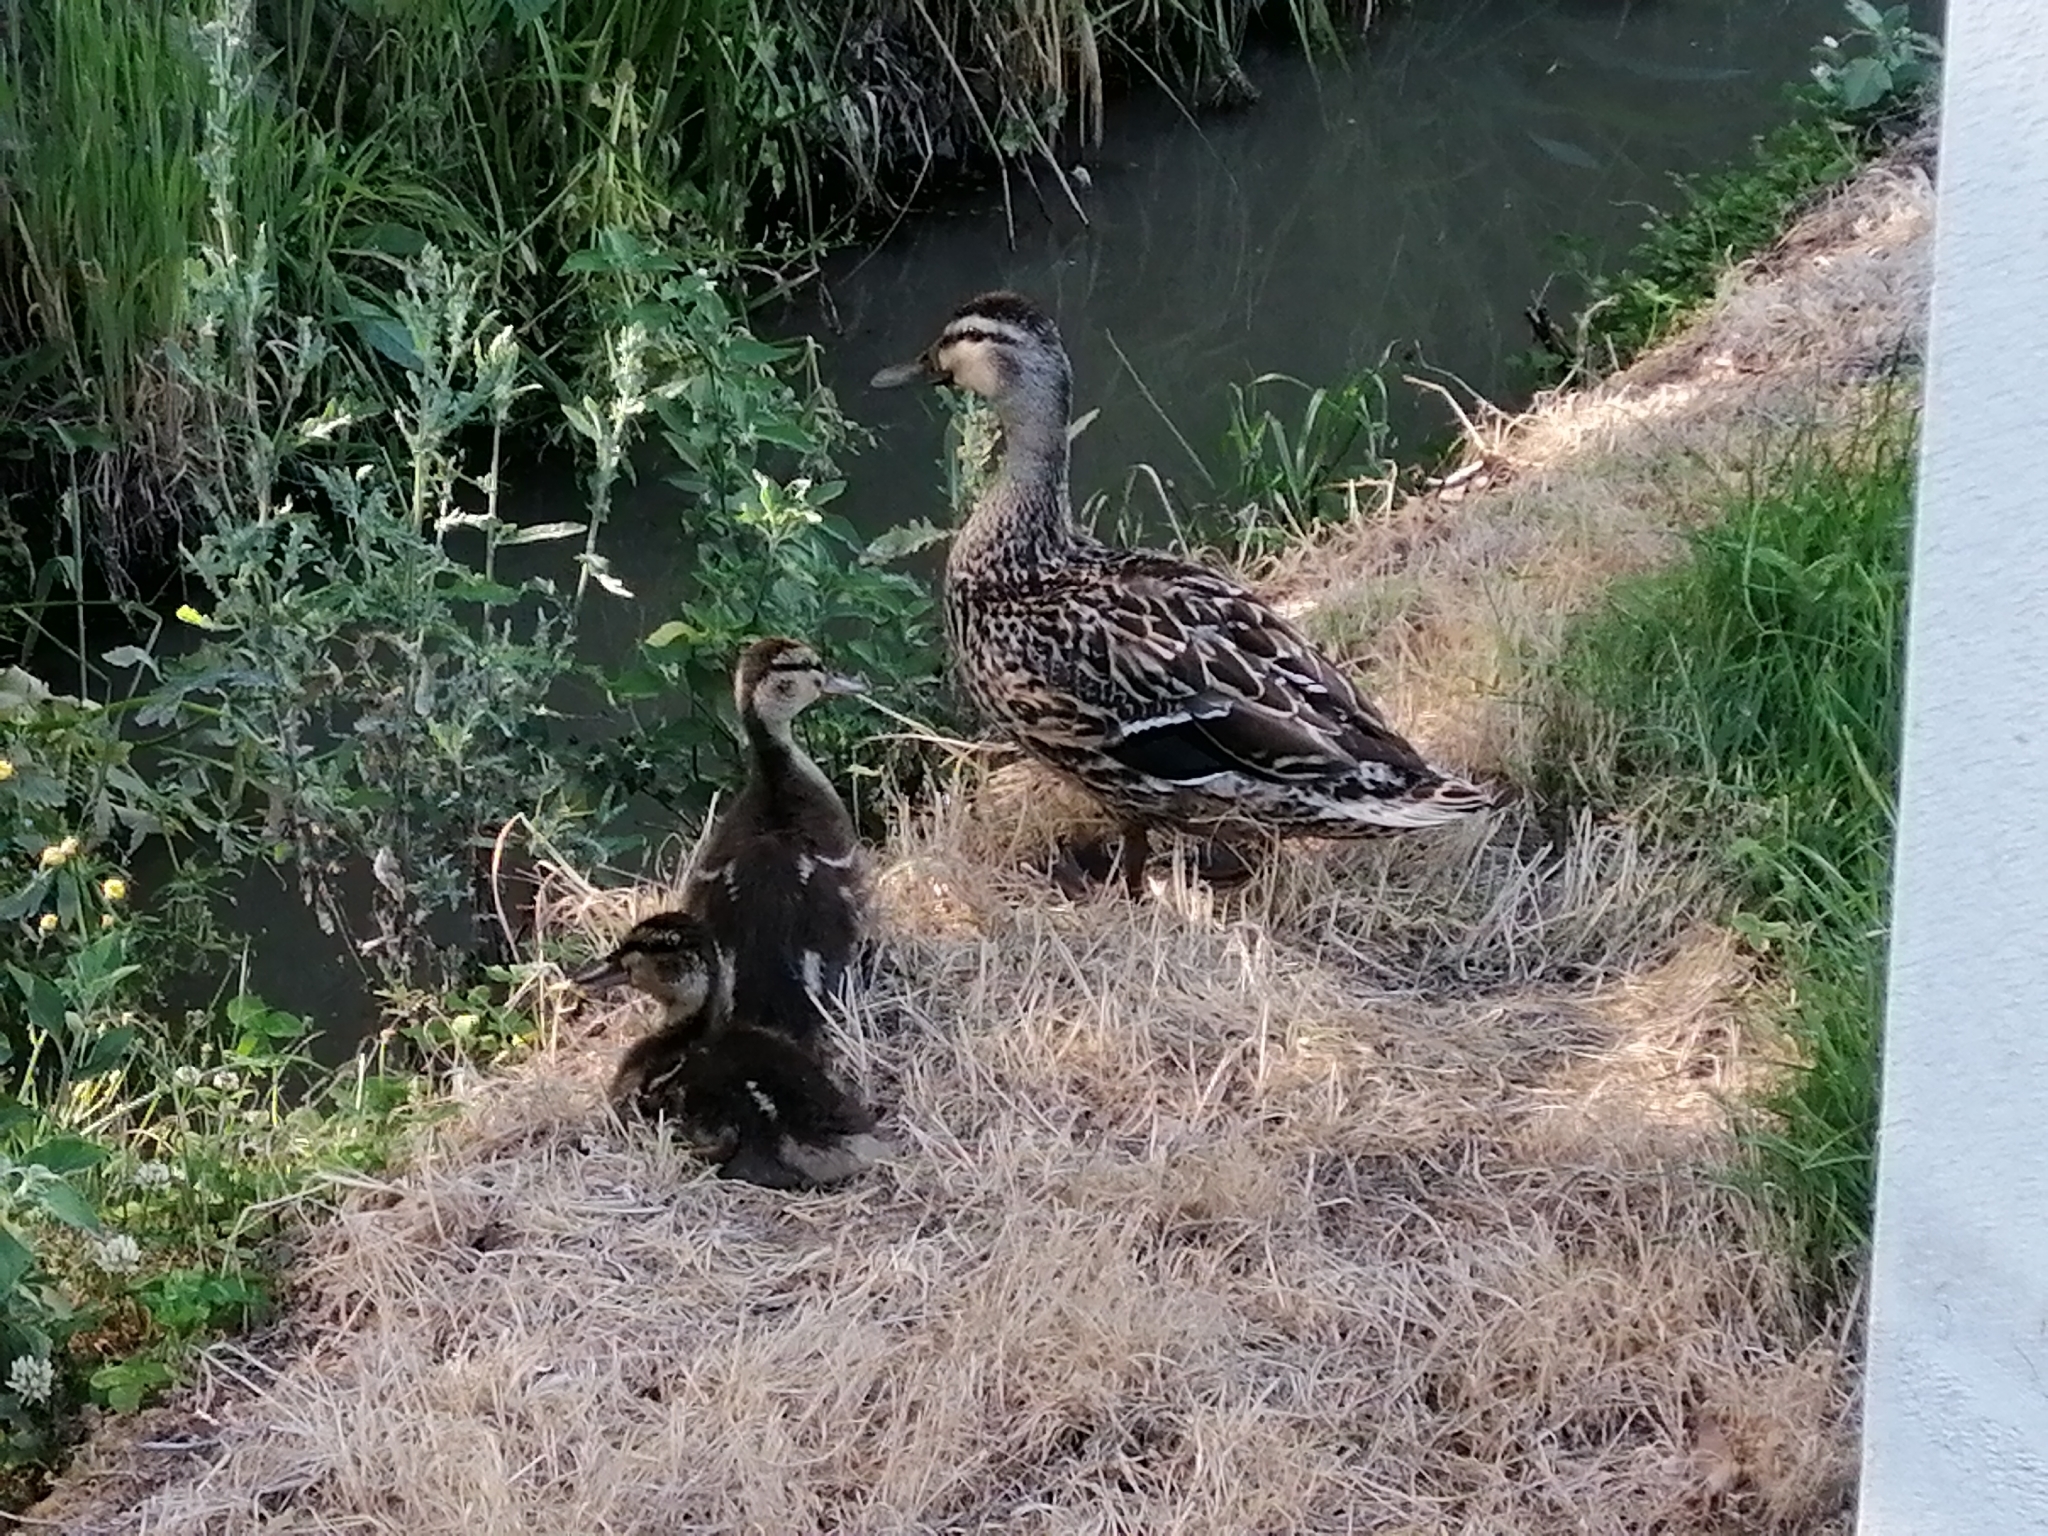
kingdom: Animalia
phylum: Chordata
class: Aves
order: Anseriformes
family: Anatidae
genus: Anas
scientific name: Anas
